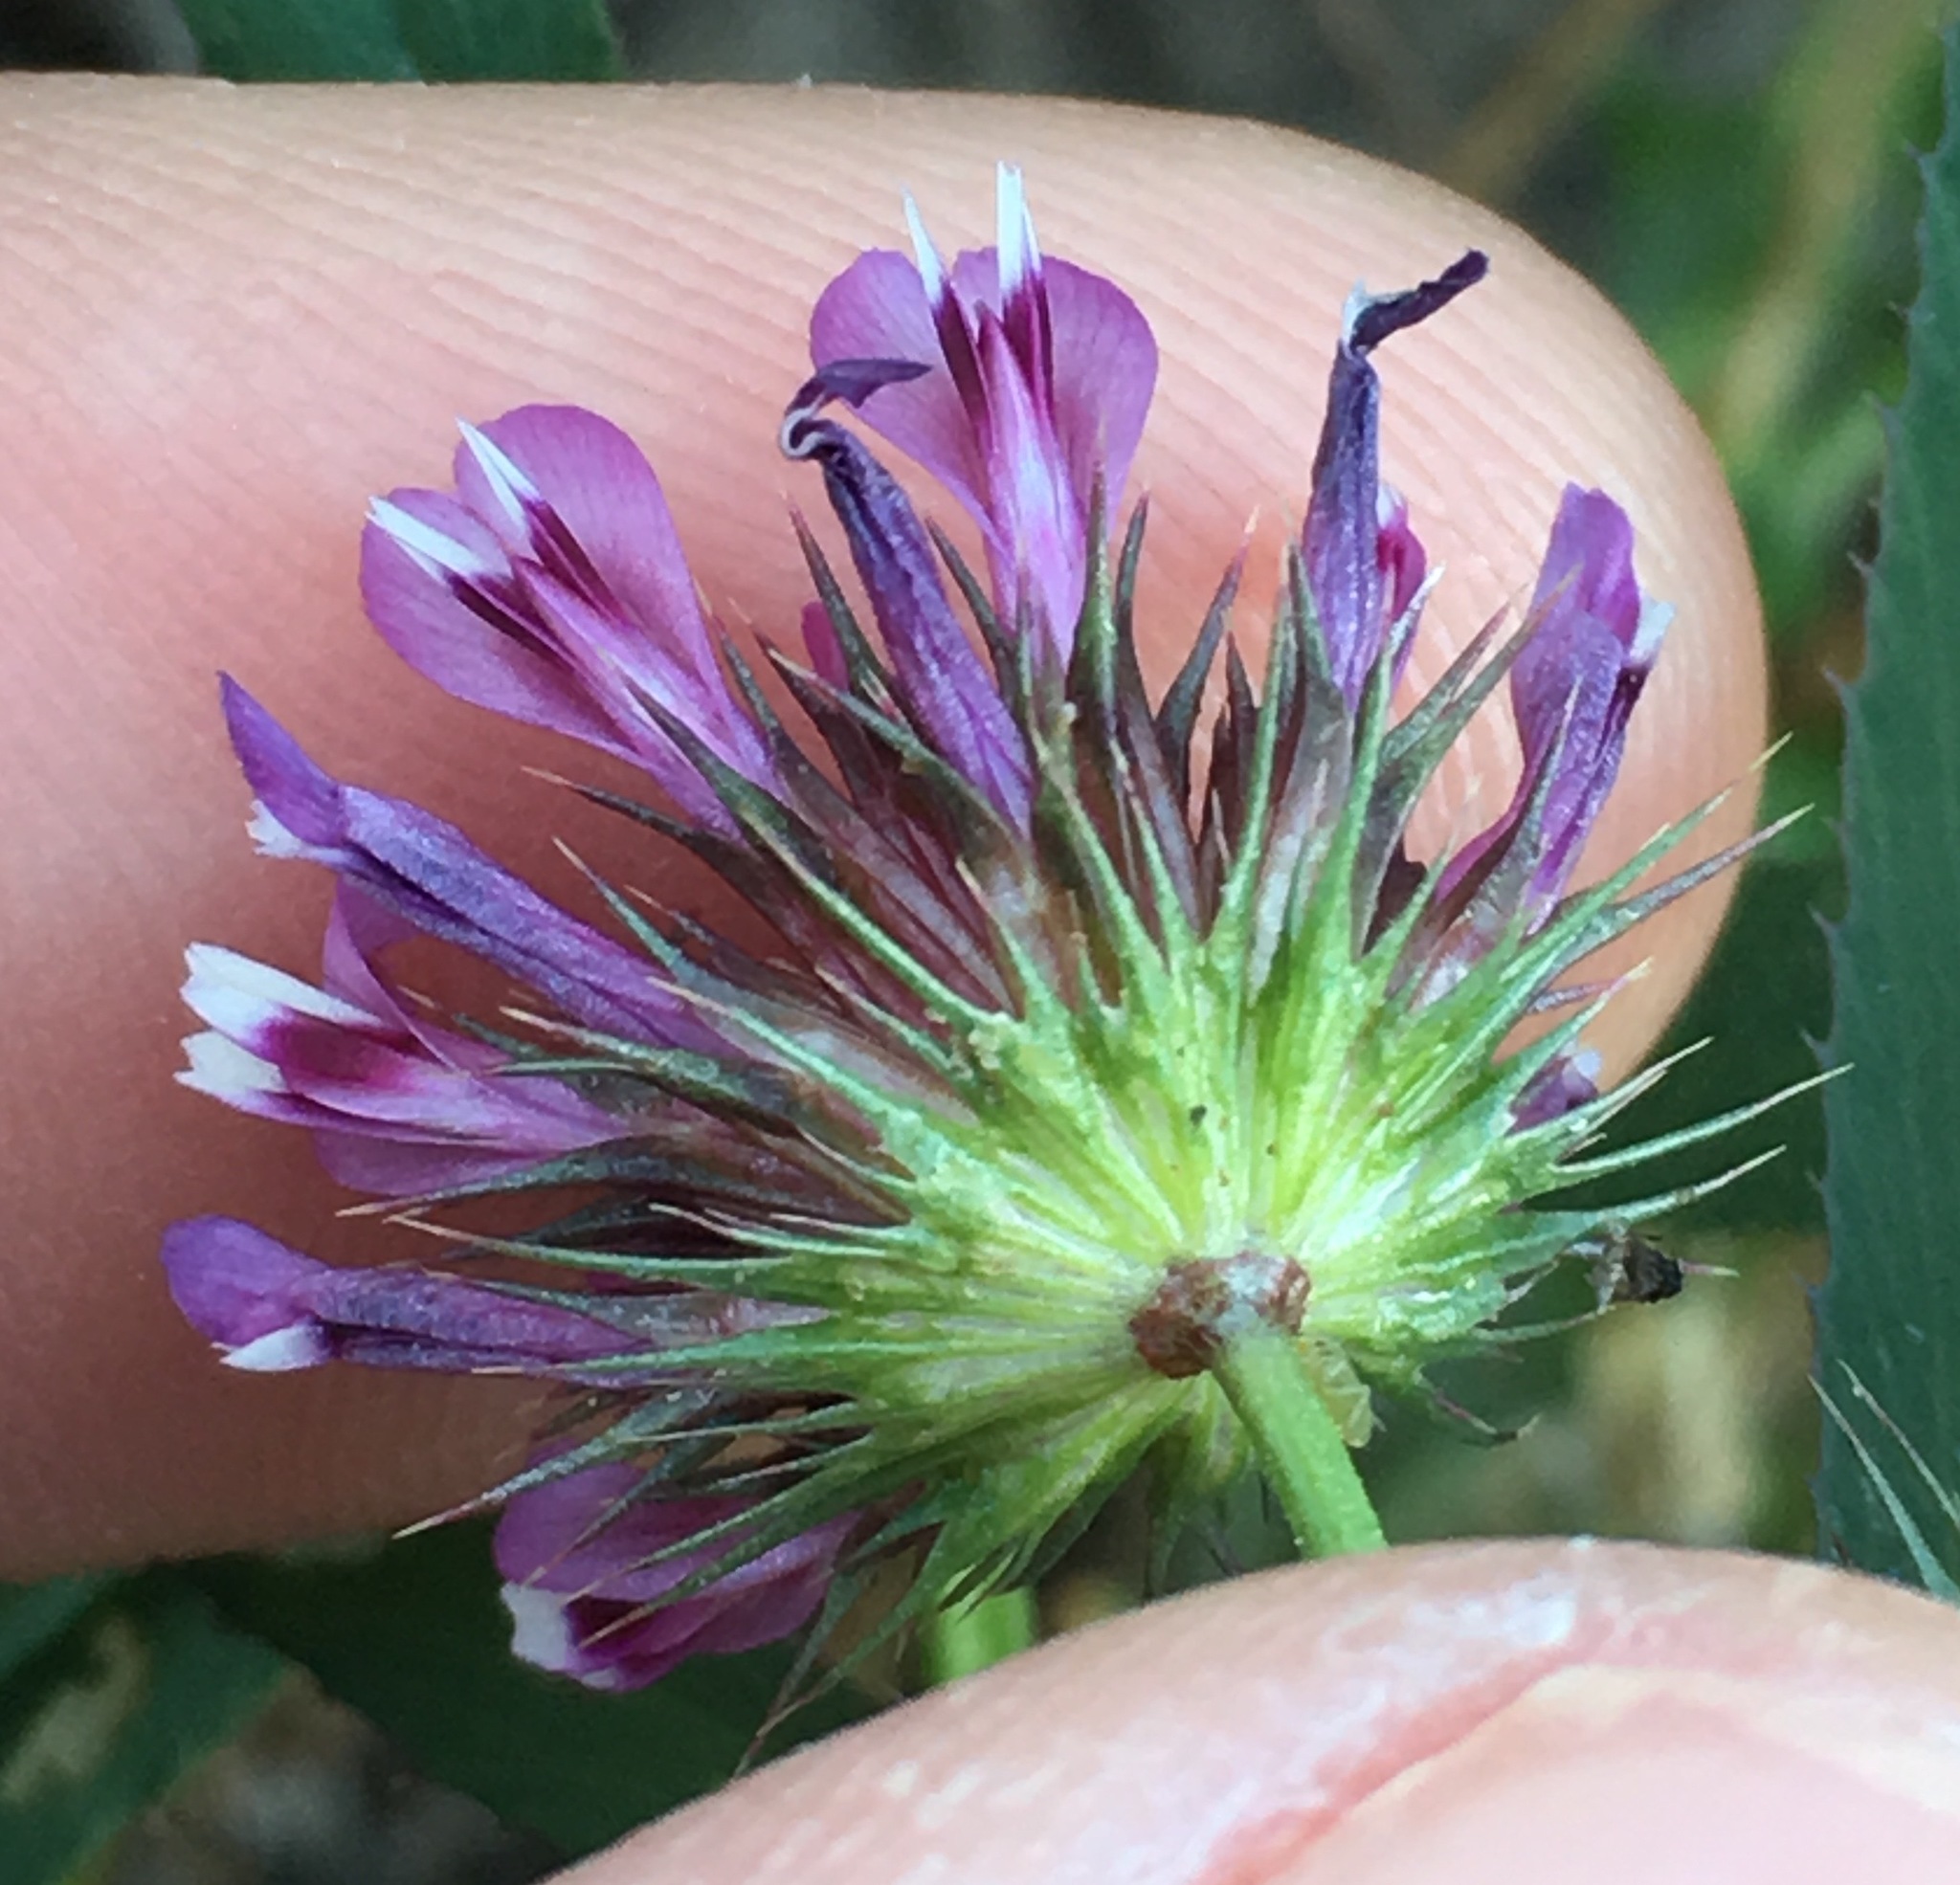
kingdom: Plantae
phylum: Tracheophyta
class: Magnoliopsida
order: Fabales
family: Fabaceae
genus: Trifolium
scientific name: Trifolium willdenovii
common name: Tomcat clover
